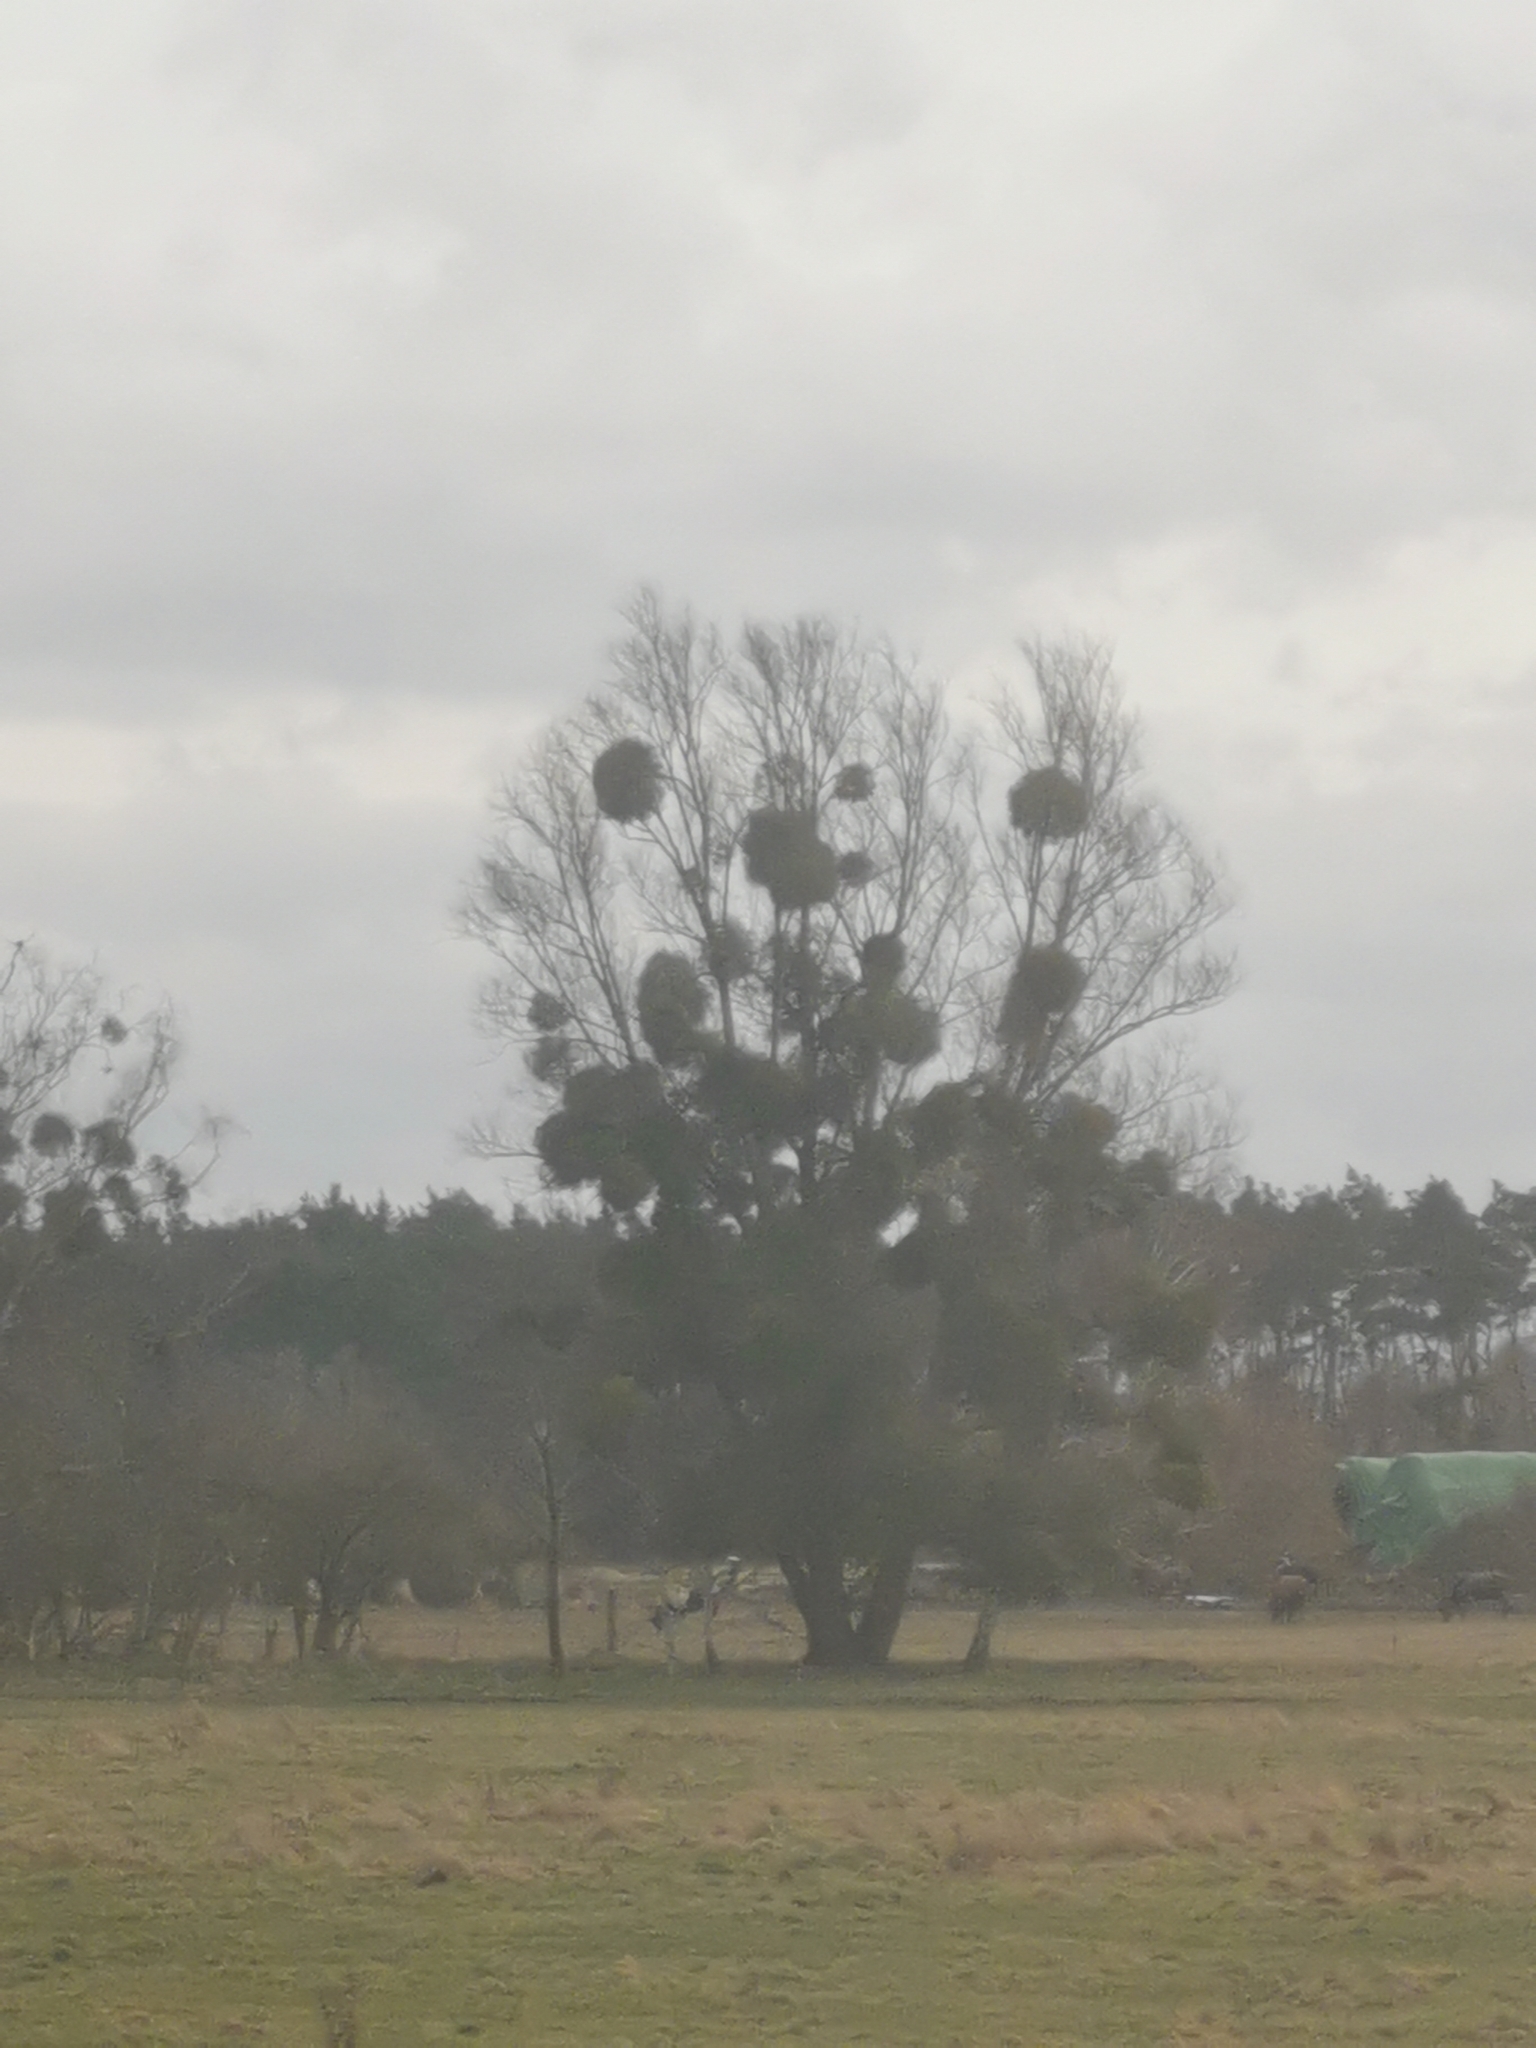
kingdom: Plantae
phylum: Tracheophyta
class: Magnoliopsida
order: Santalales
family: Viscaceae
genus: Viscum
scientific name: Viscum album
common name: Mistletoe
